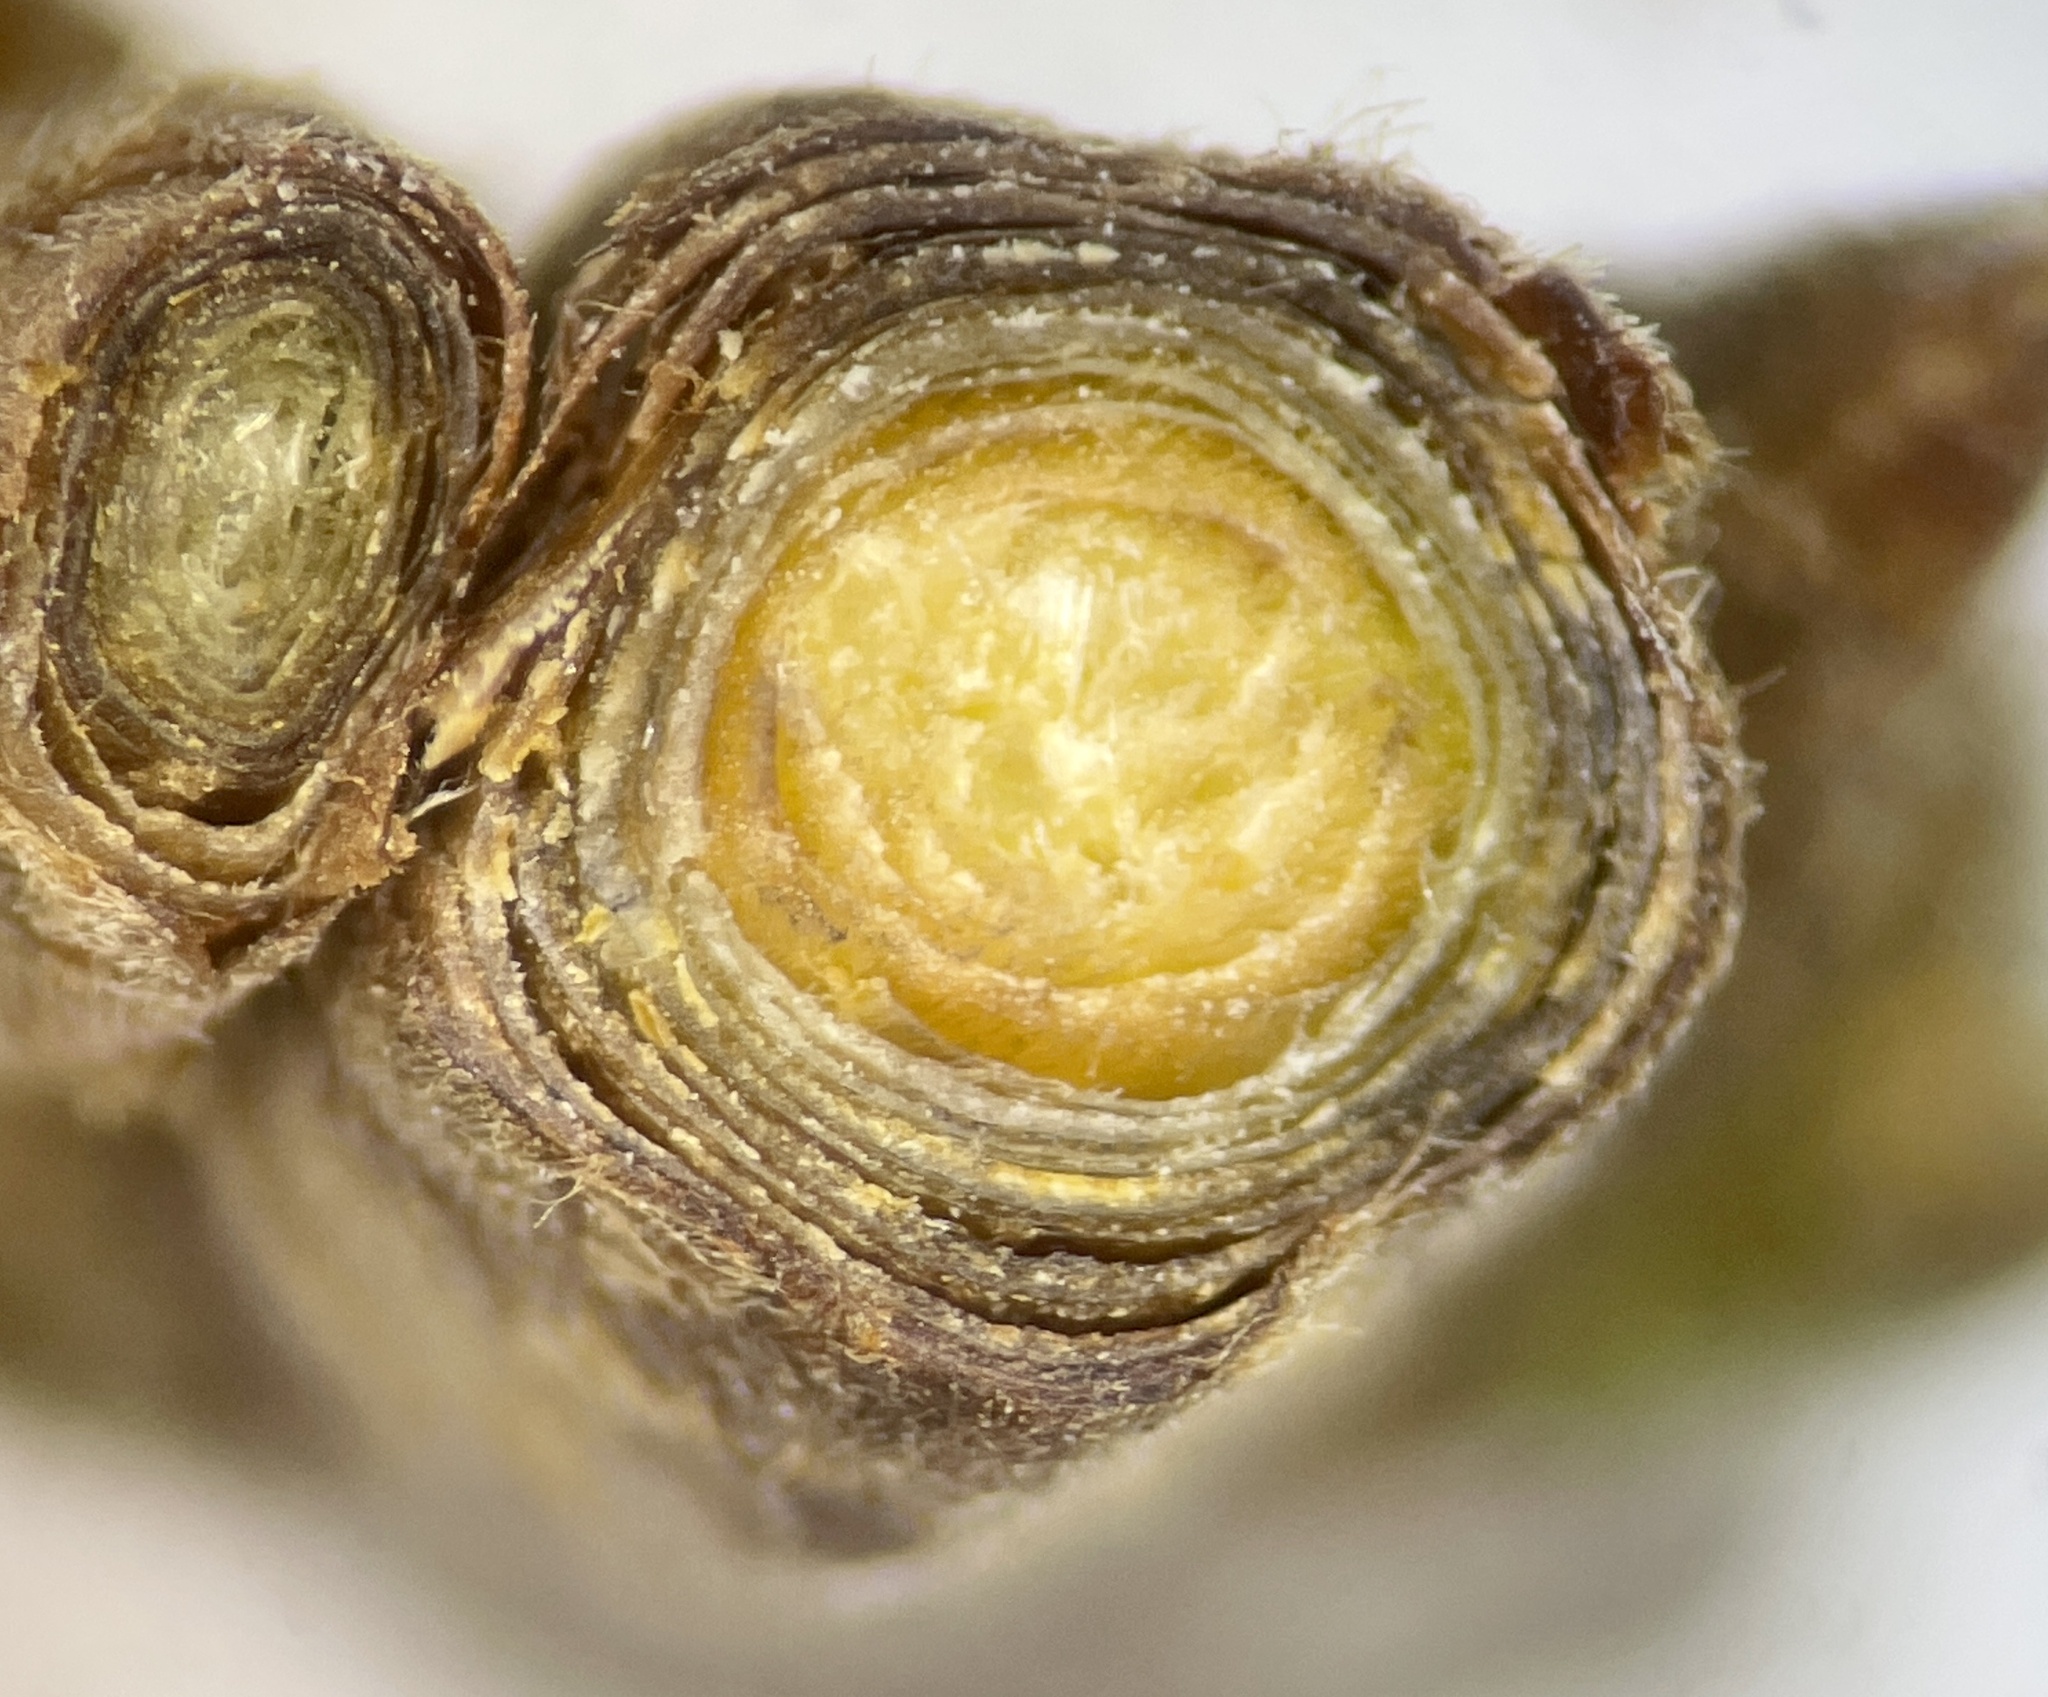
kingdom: Animalia
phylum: Arthropoda
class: Insecta
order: Hymenoptera
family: Cynipidae
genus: Kokkocynips
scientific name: Kokkocynips rileyi
